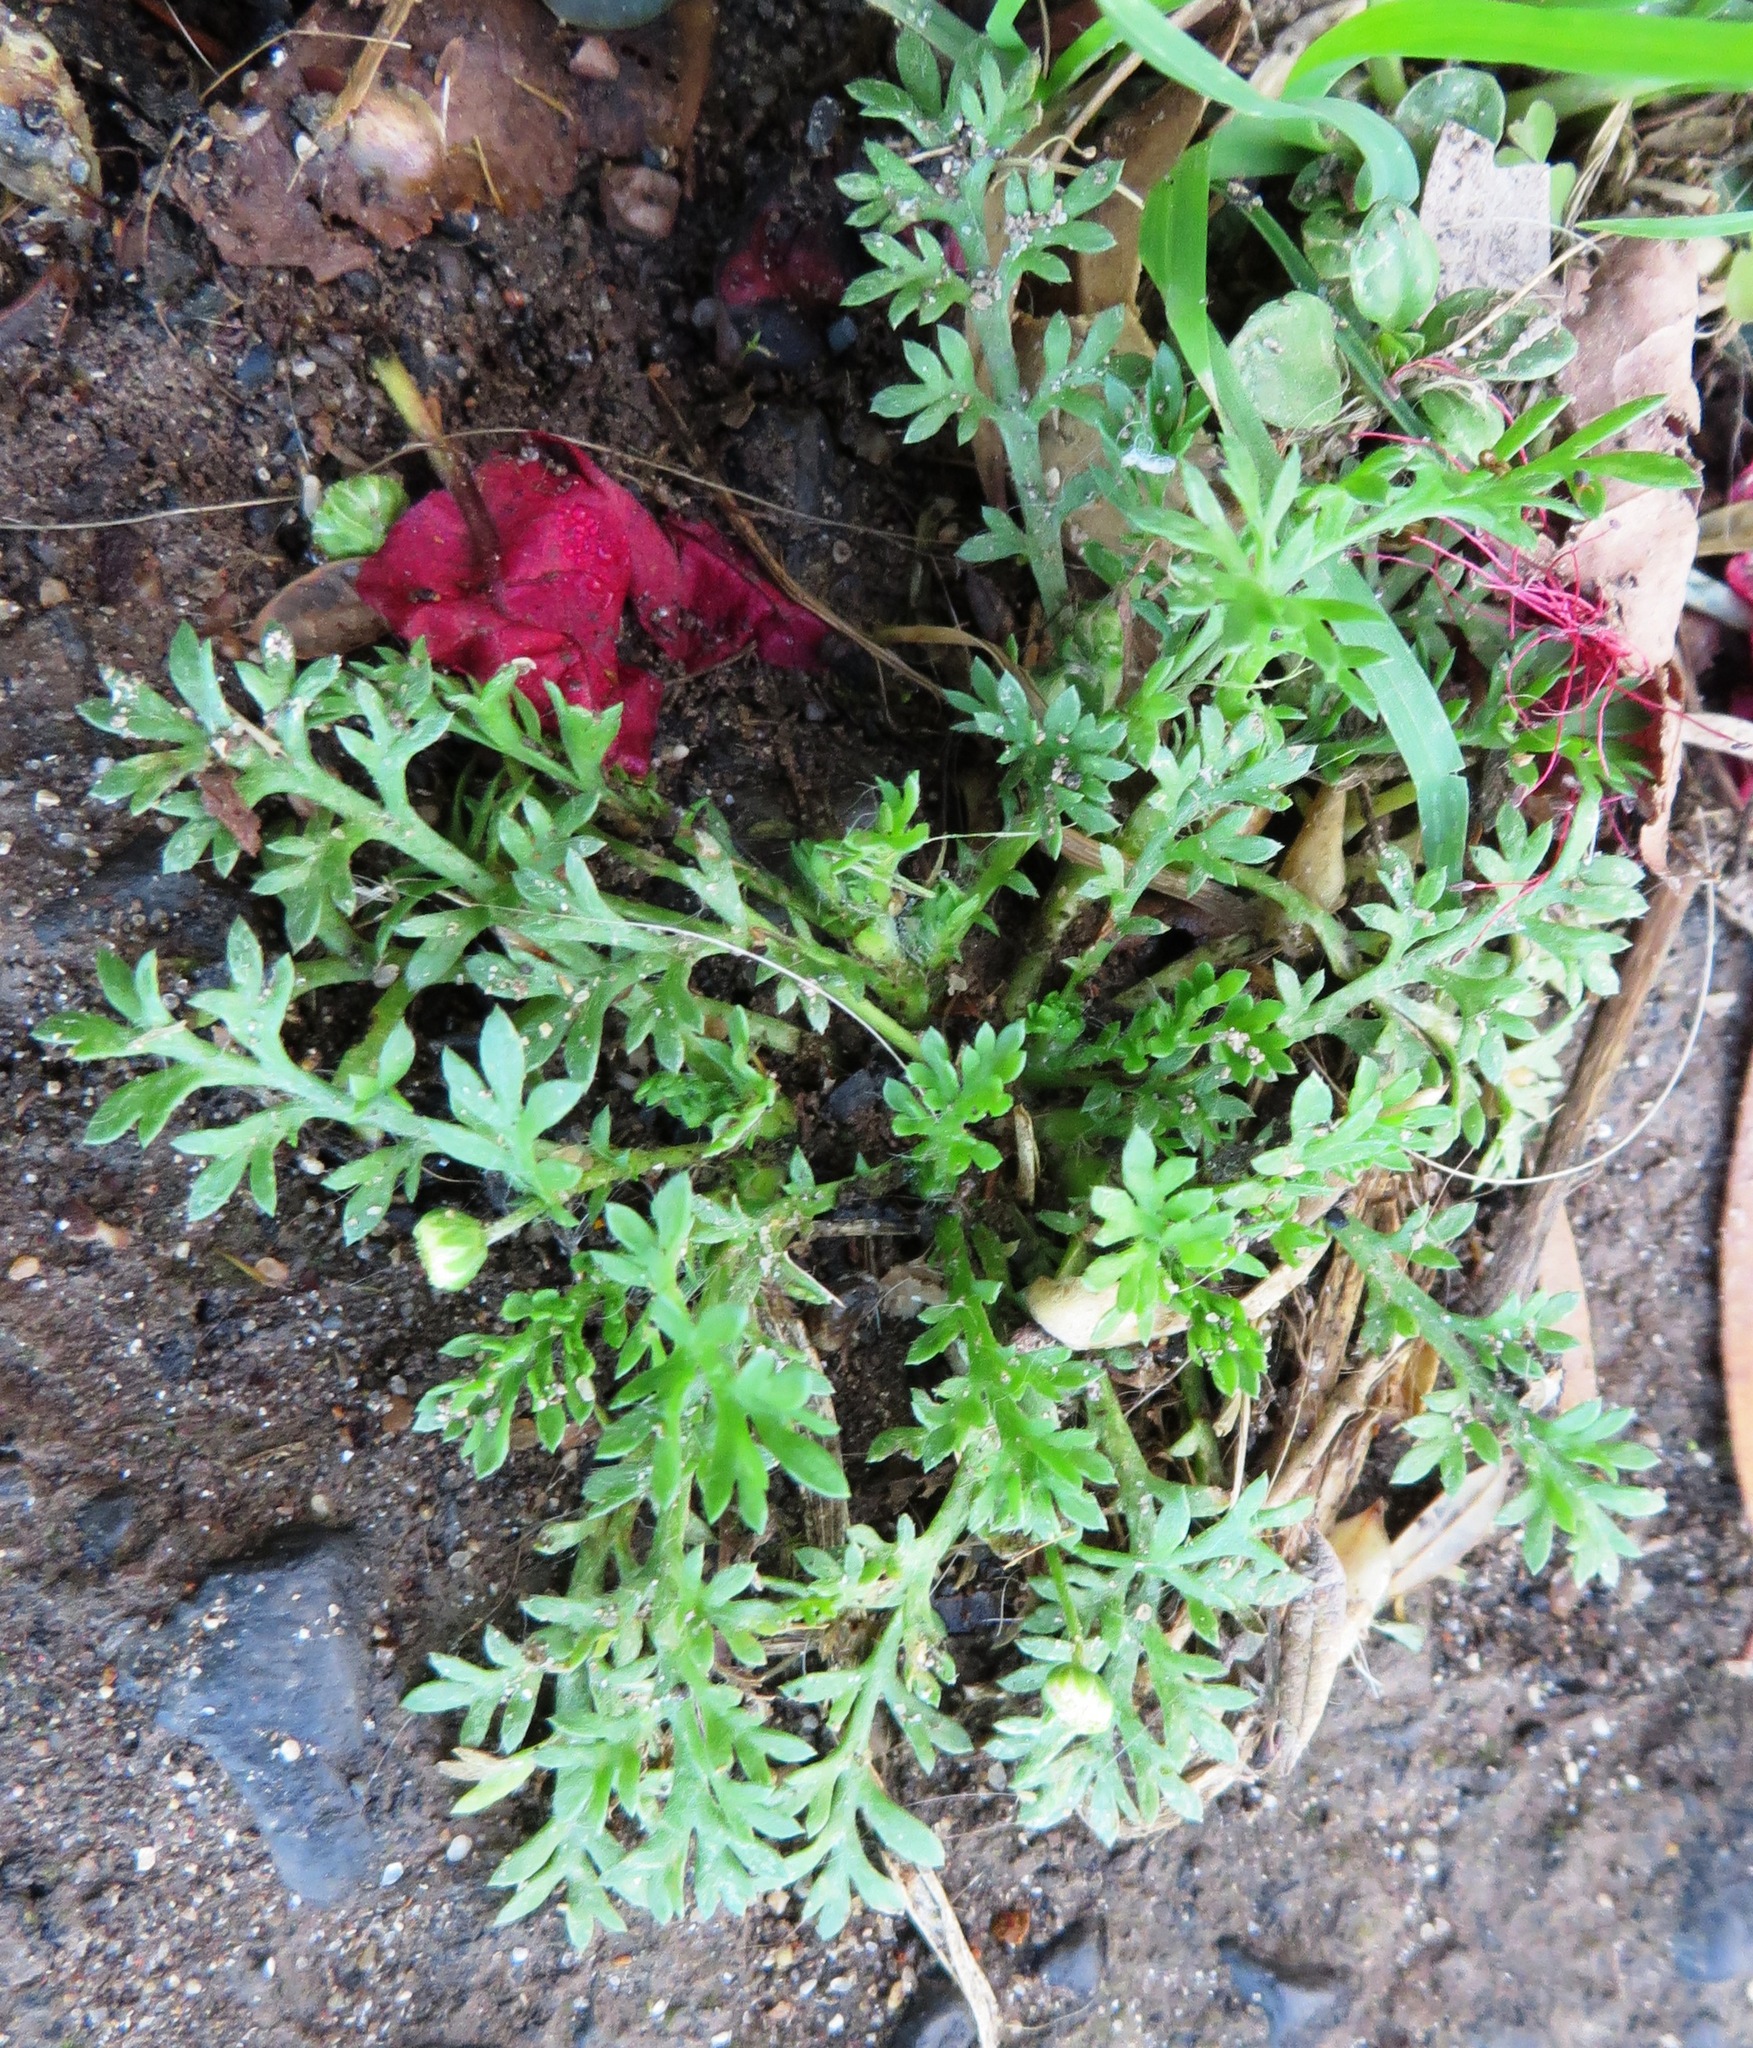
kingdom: Plantae
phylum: Tracheophyta
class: Magnoliopsida
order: Asterales
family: Asteraceae
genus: Cotula
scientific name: Cotula australis
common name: Australian waterbuttons
